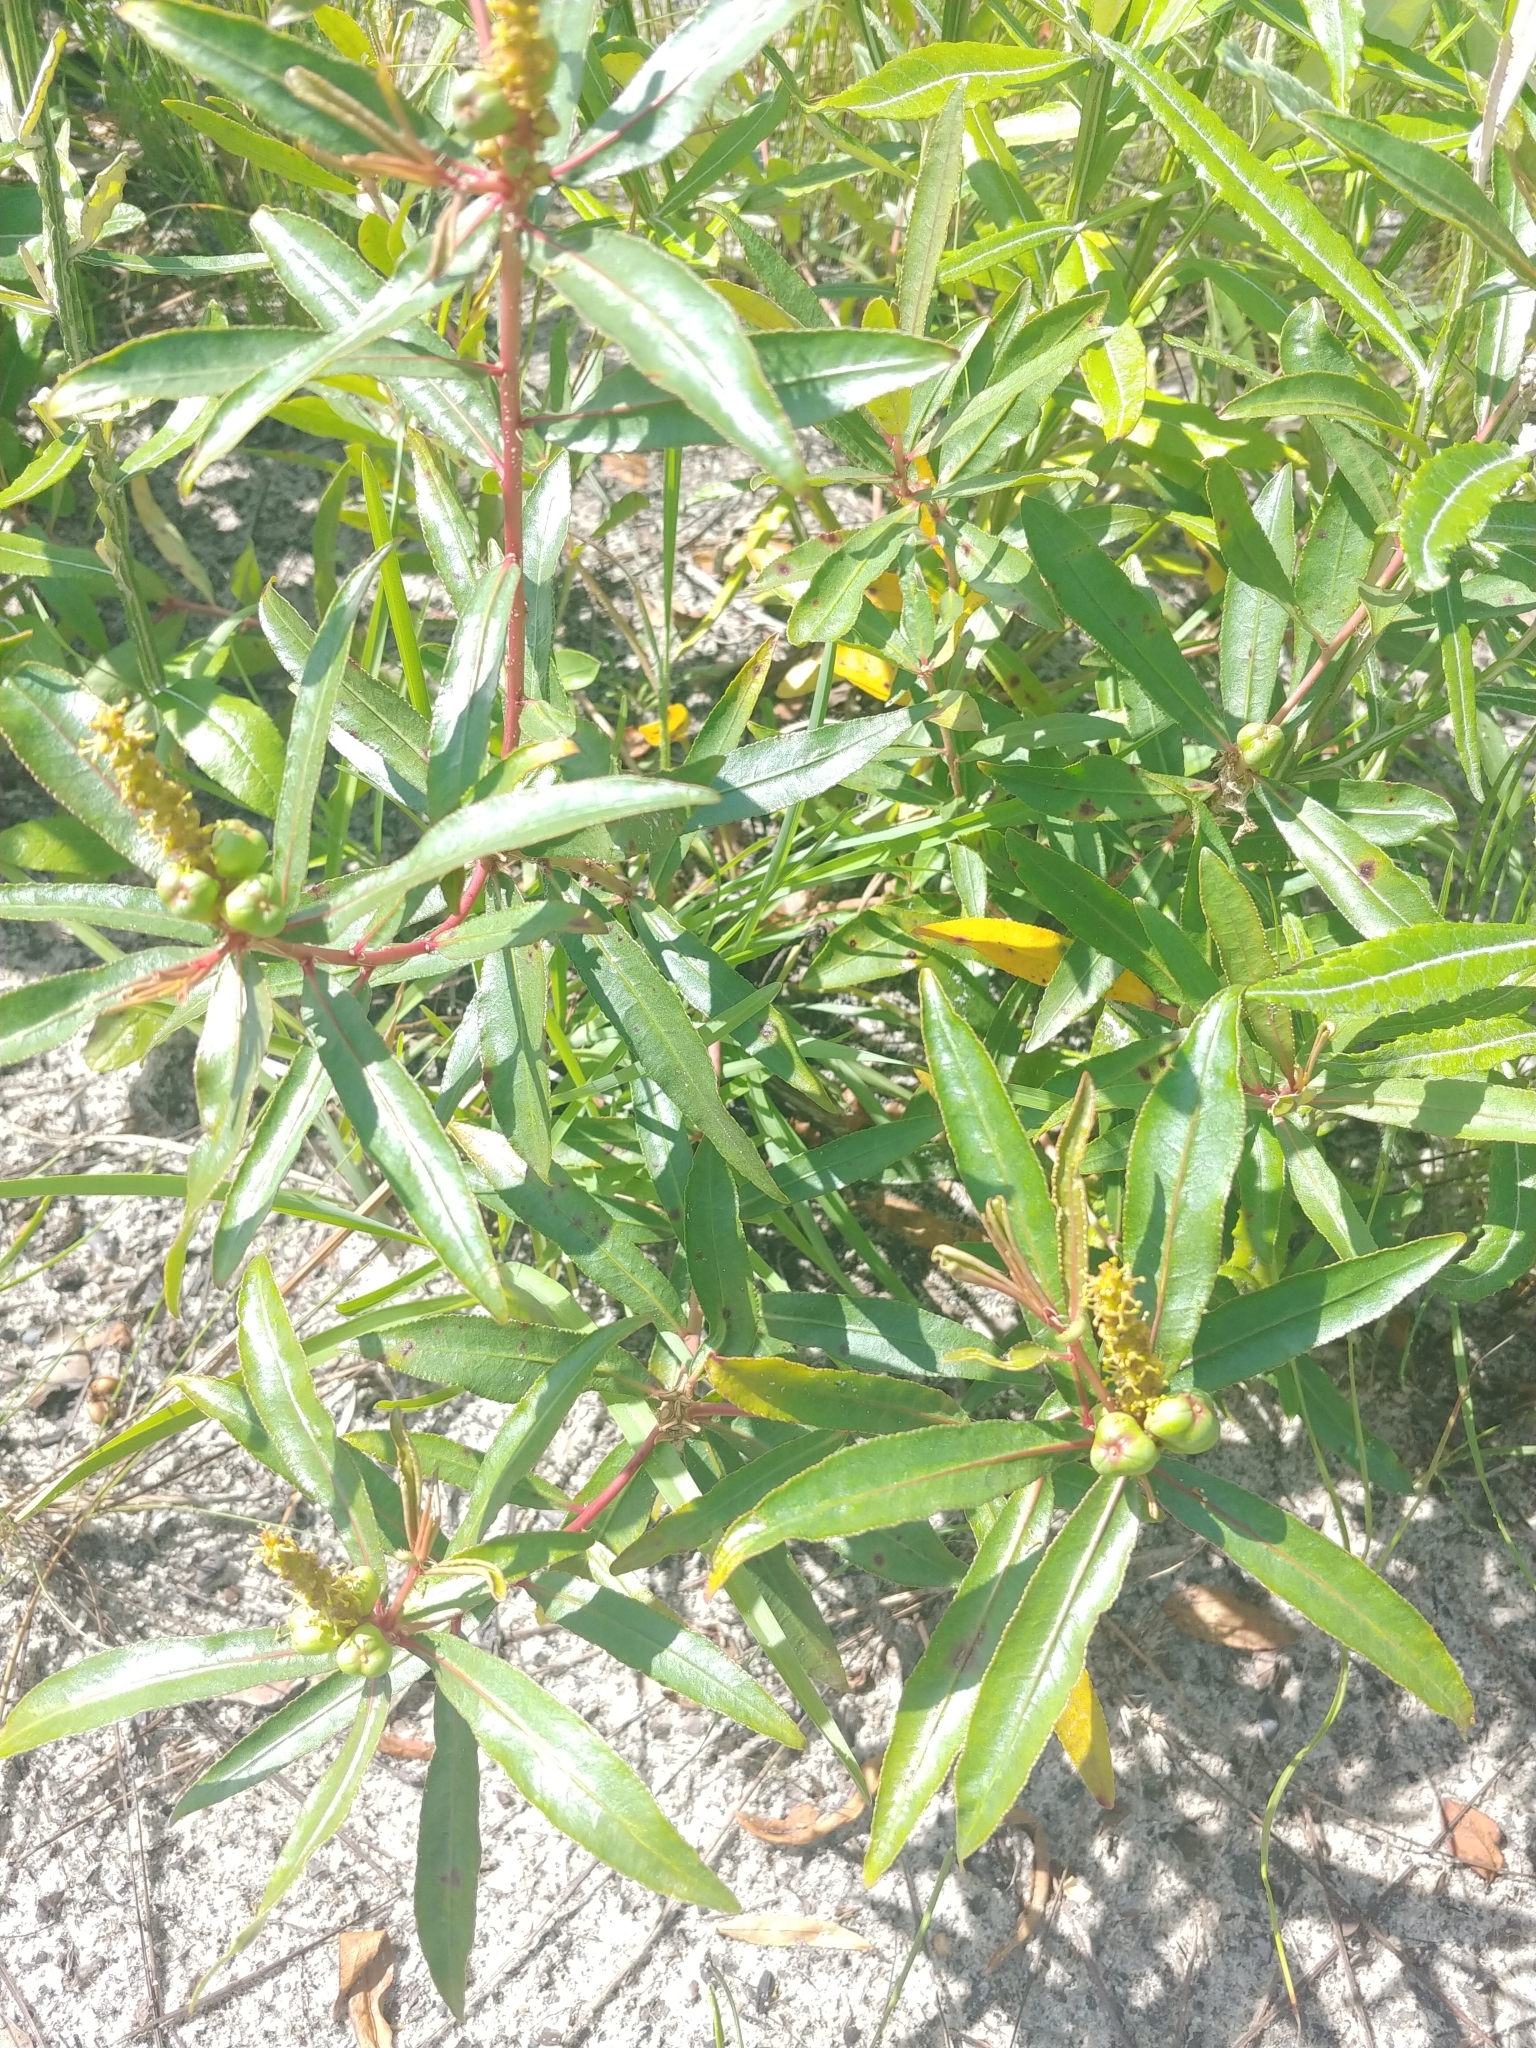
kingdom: Plantae
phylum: Tracheophyta
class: Magnoliopsida
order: Malpighiales
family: Euphorbiaceae
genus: Stillingia
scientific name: Stillingia sylvatica
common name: Queen's-delight
